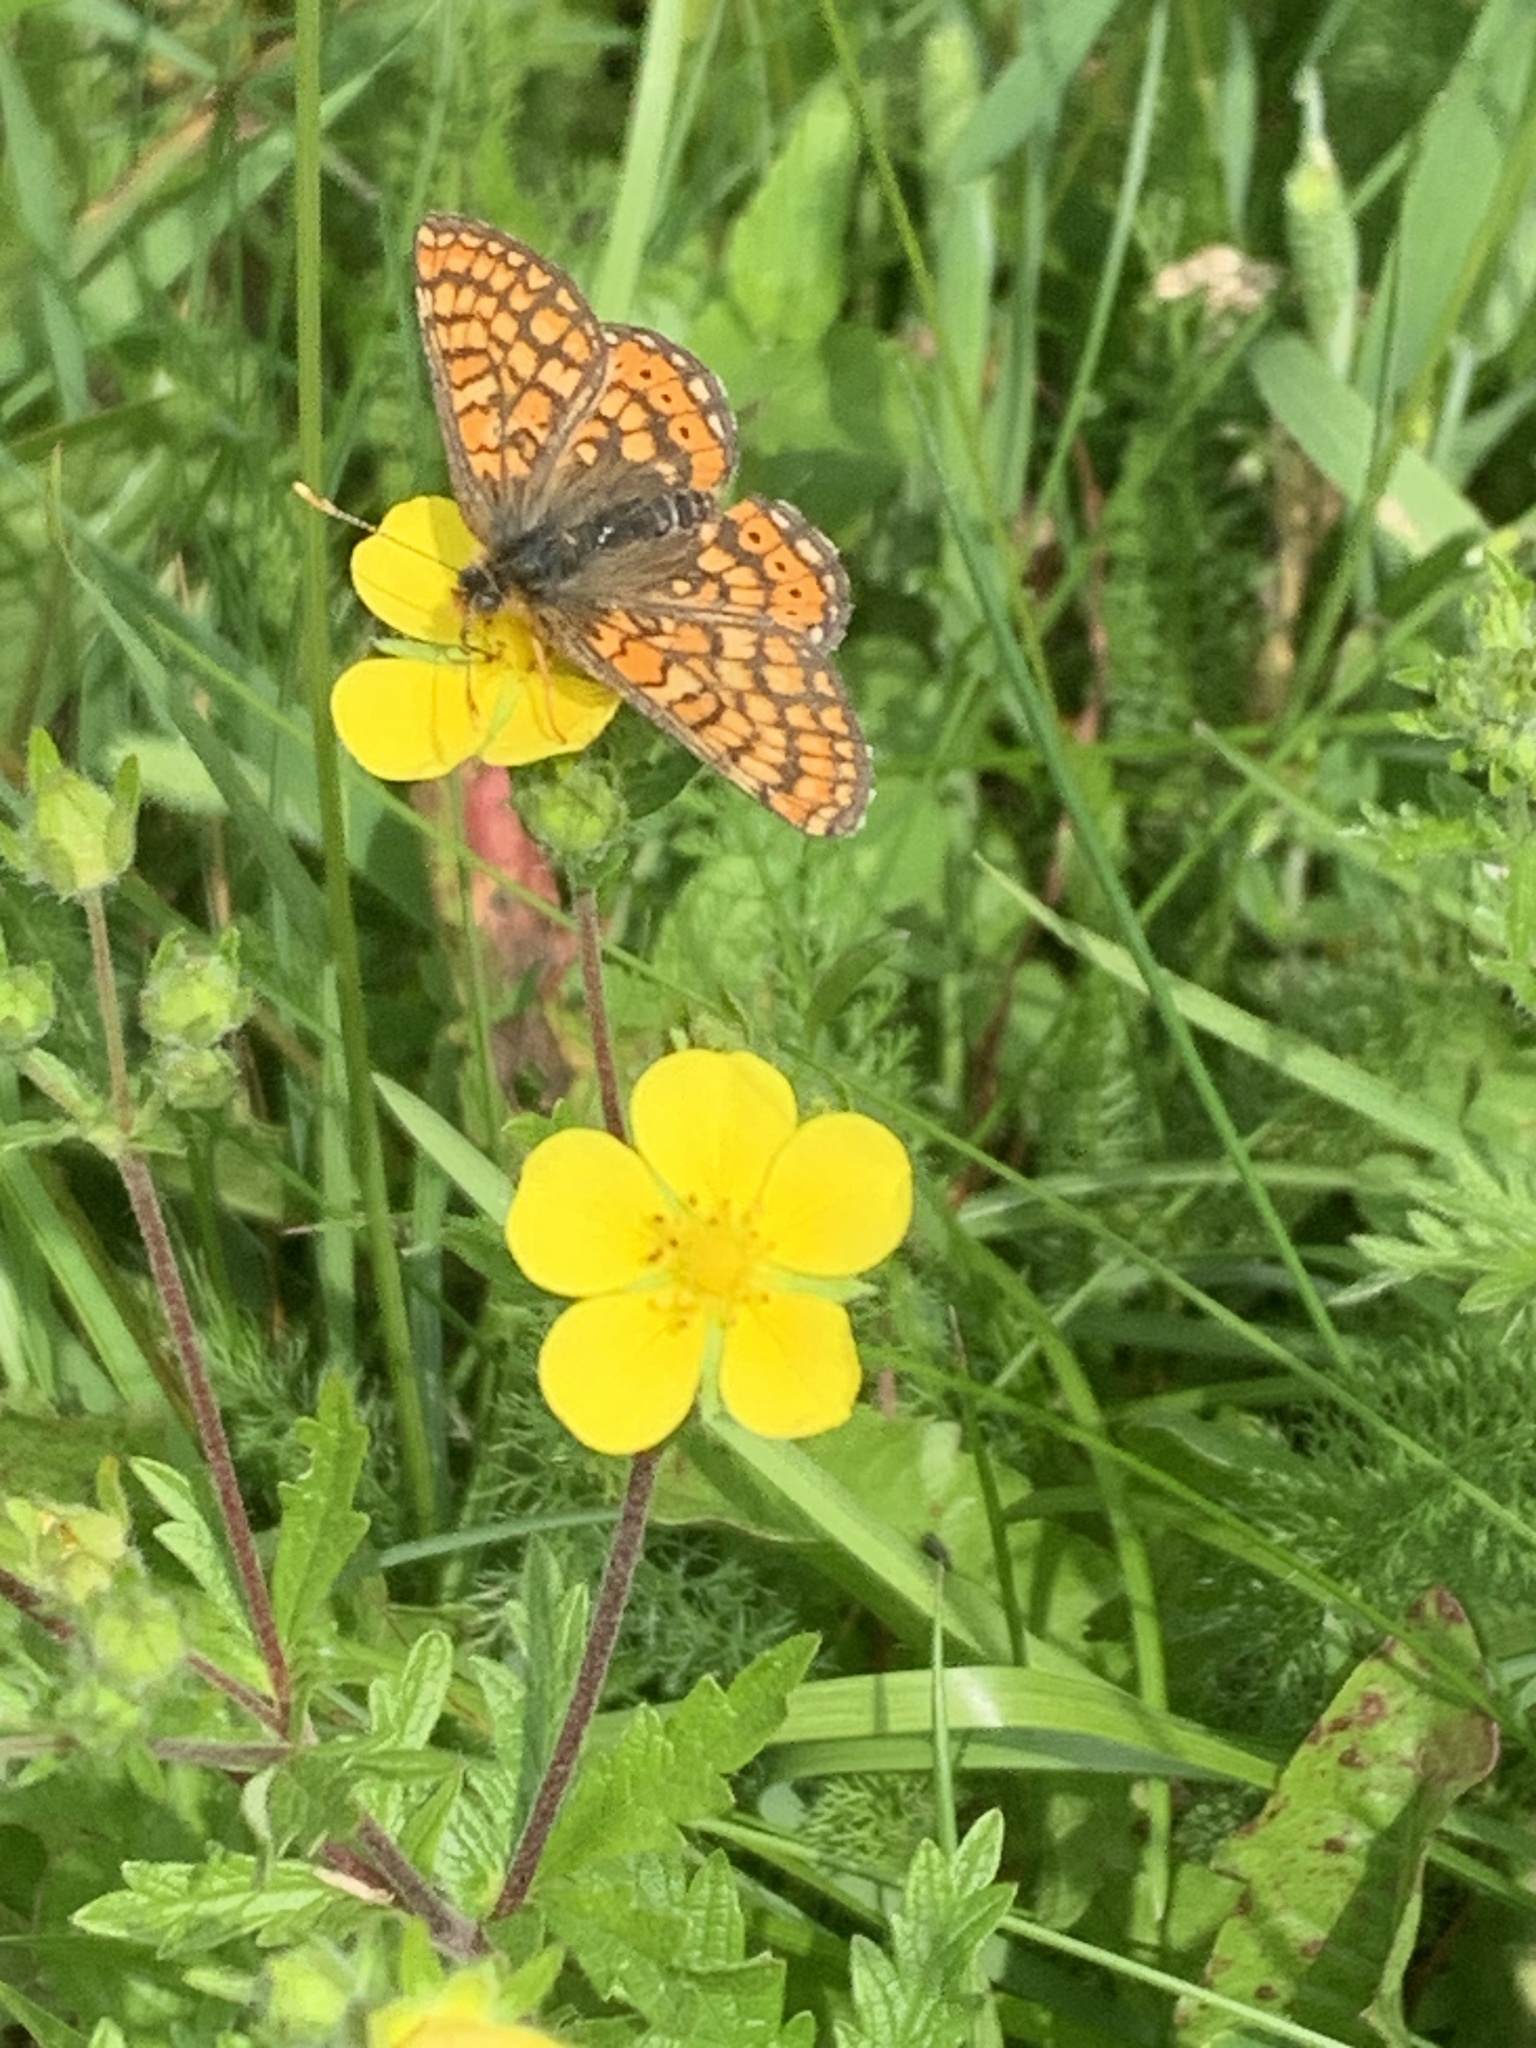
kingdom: Animalia
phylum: Arthropoda
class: Insecta
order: Lepidoptera
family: Nymphalidae
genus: Euphydryas
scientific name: Euphydryas aurinia
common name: Marsh fritillary
